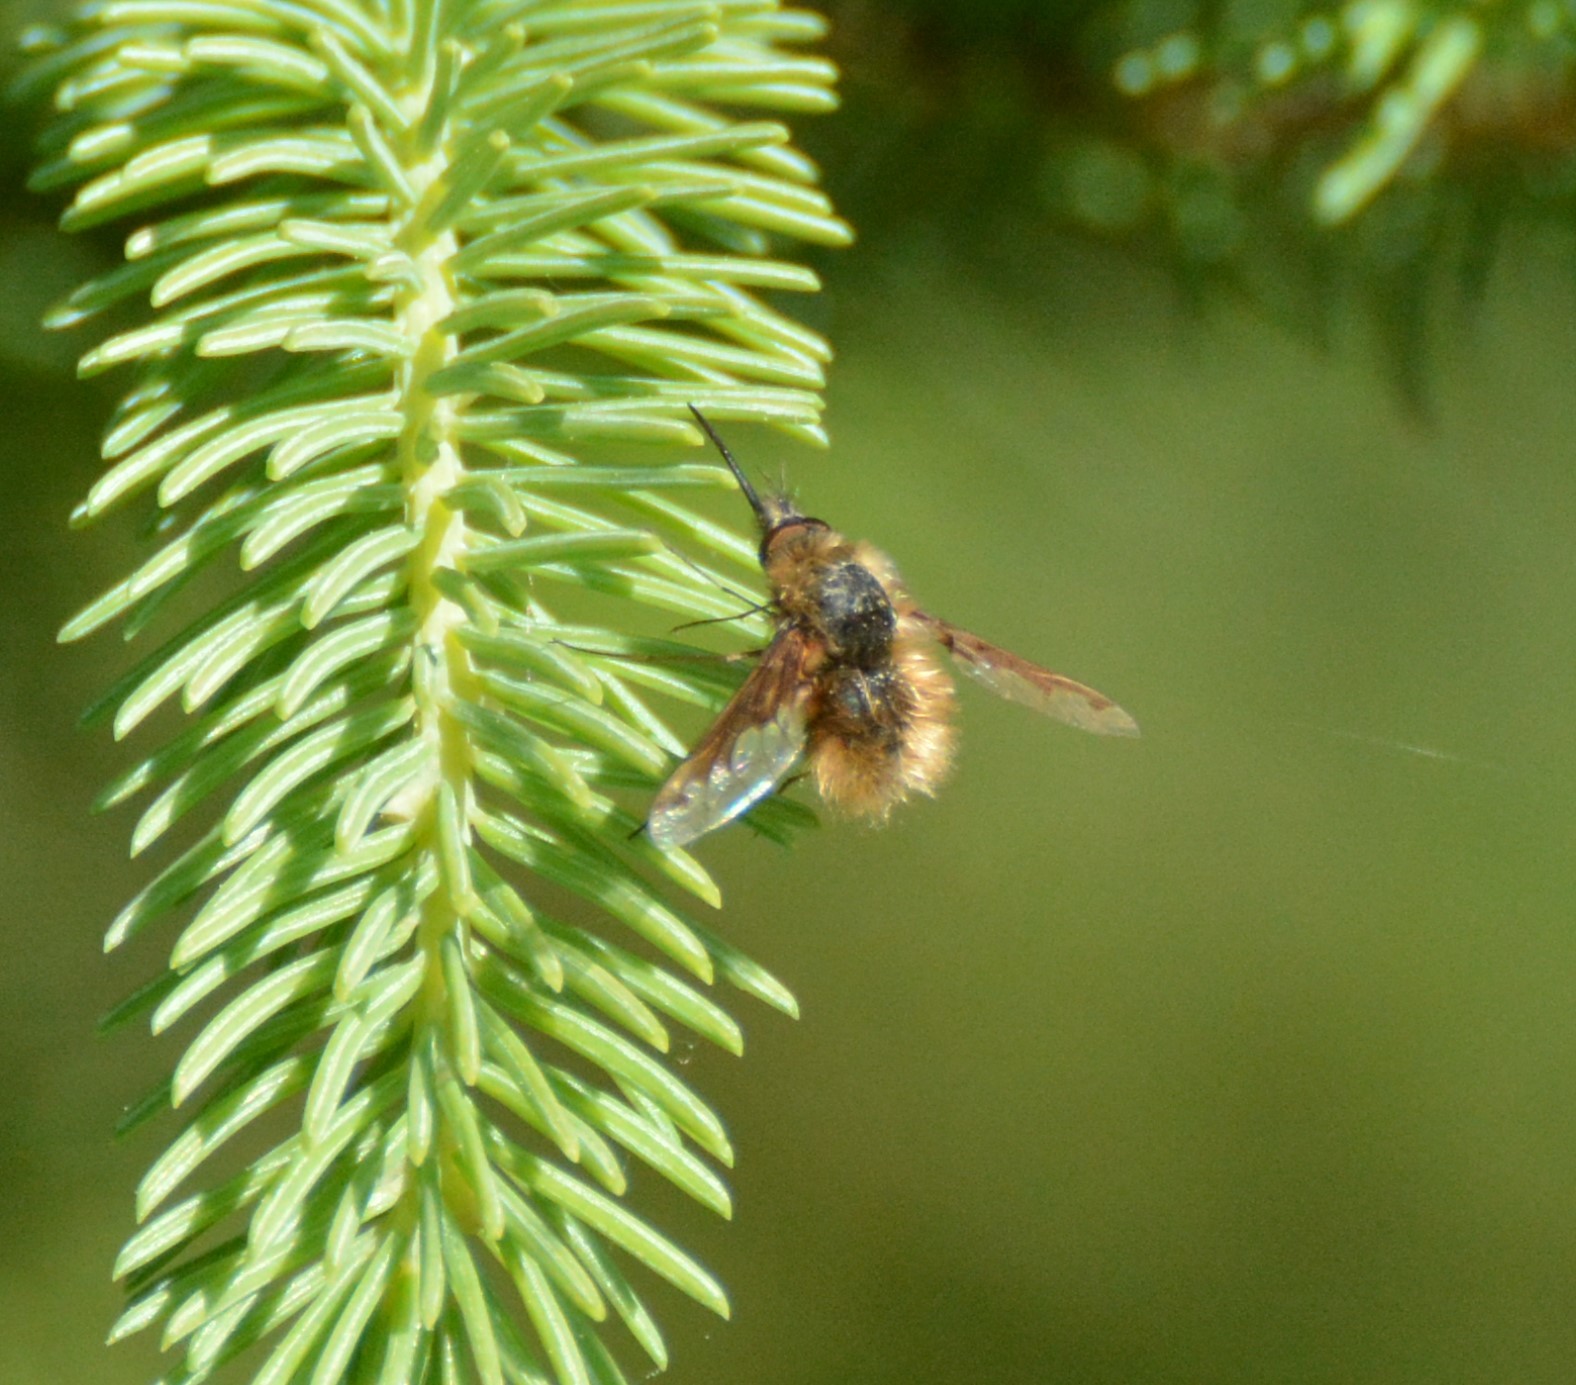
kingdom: Animalia
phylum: Arthropoda
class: Insecta
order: Diptera
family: Bombyliidae
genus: Bombylius
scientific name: Bombylius major
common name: Bee fly
